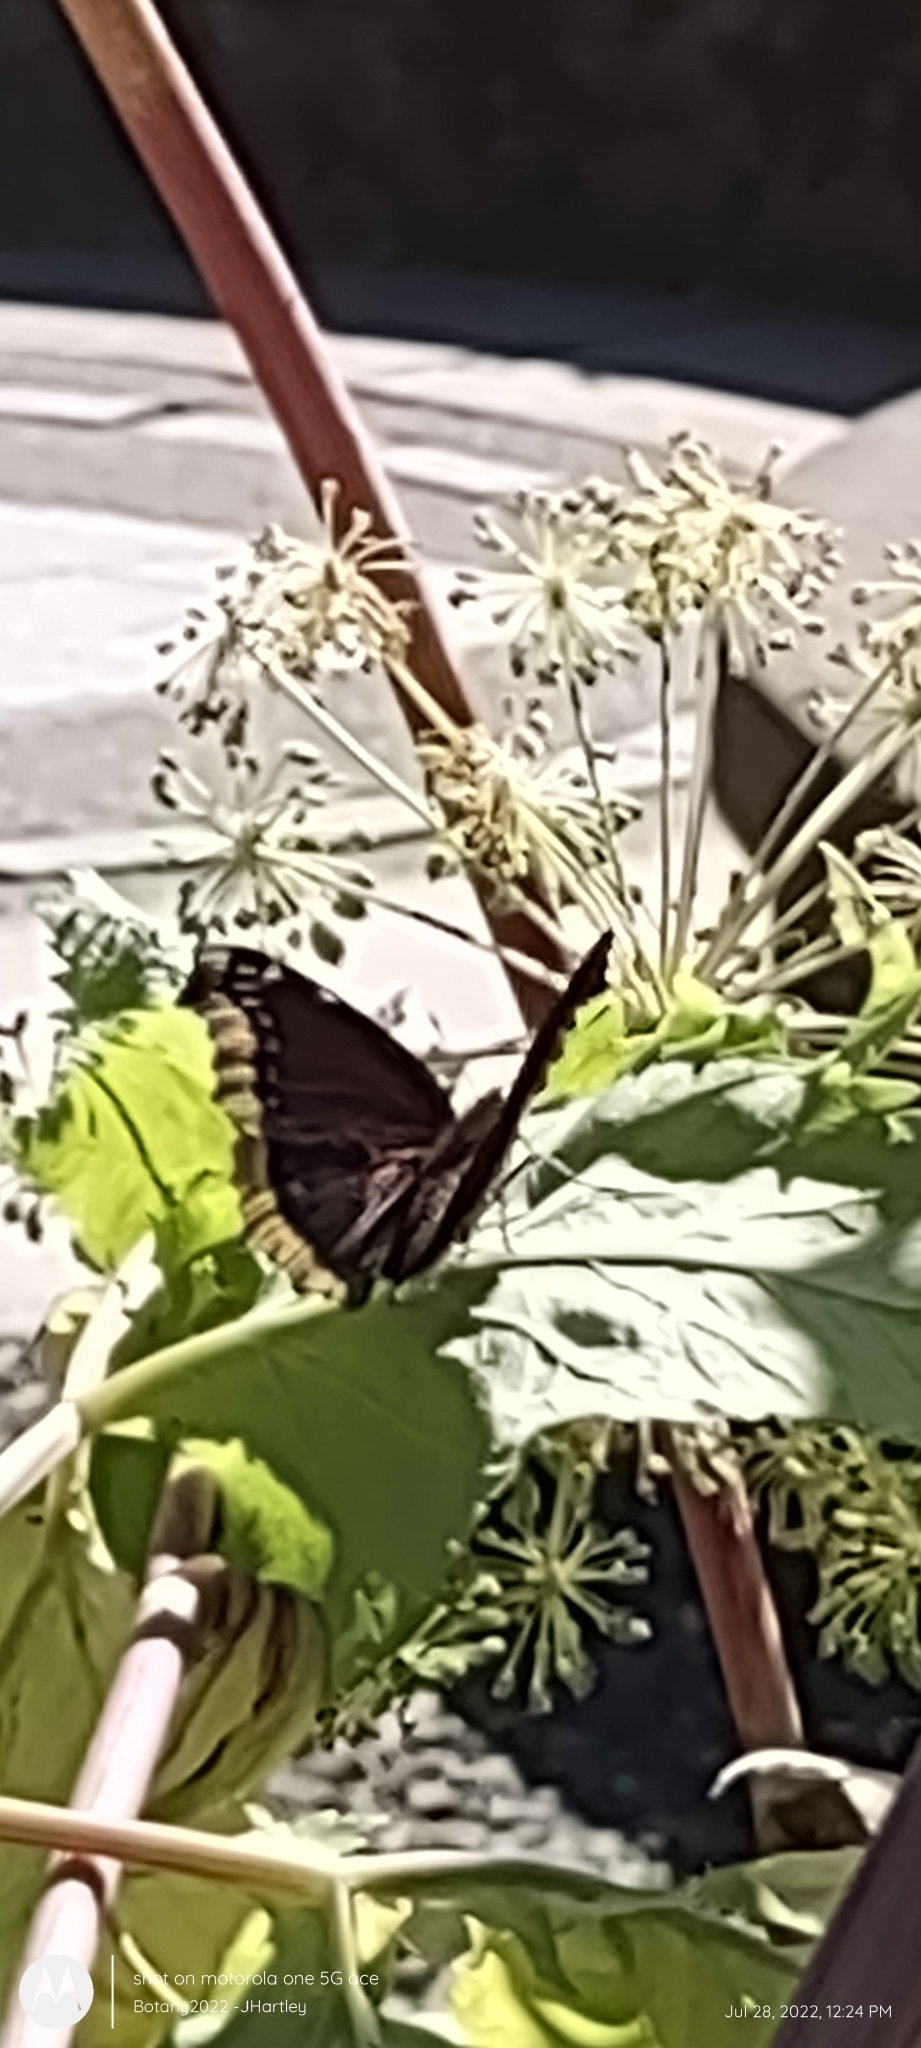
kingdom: Animalia
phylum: Arthropoda
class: Insecta
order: Lepidoptera
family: Nymphalidae
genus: Nymphalis
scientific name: Nymphalis antiopa
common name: Camberwell beauty
